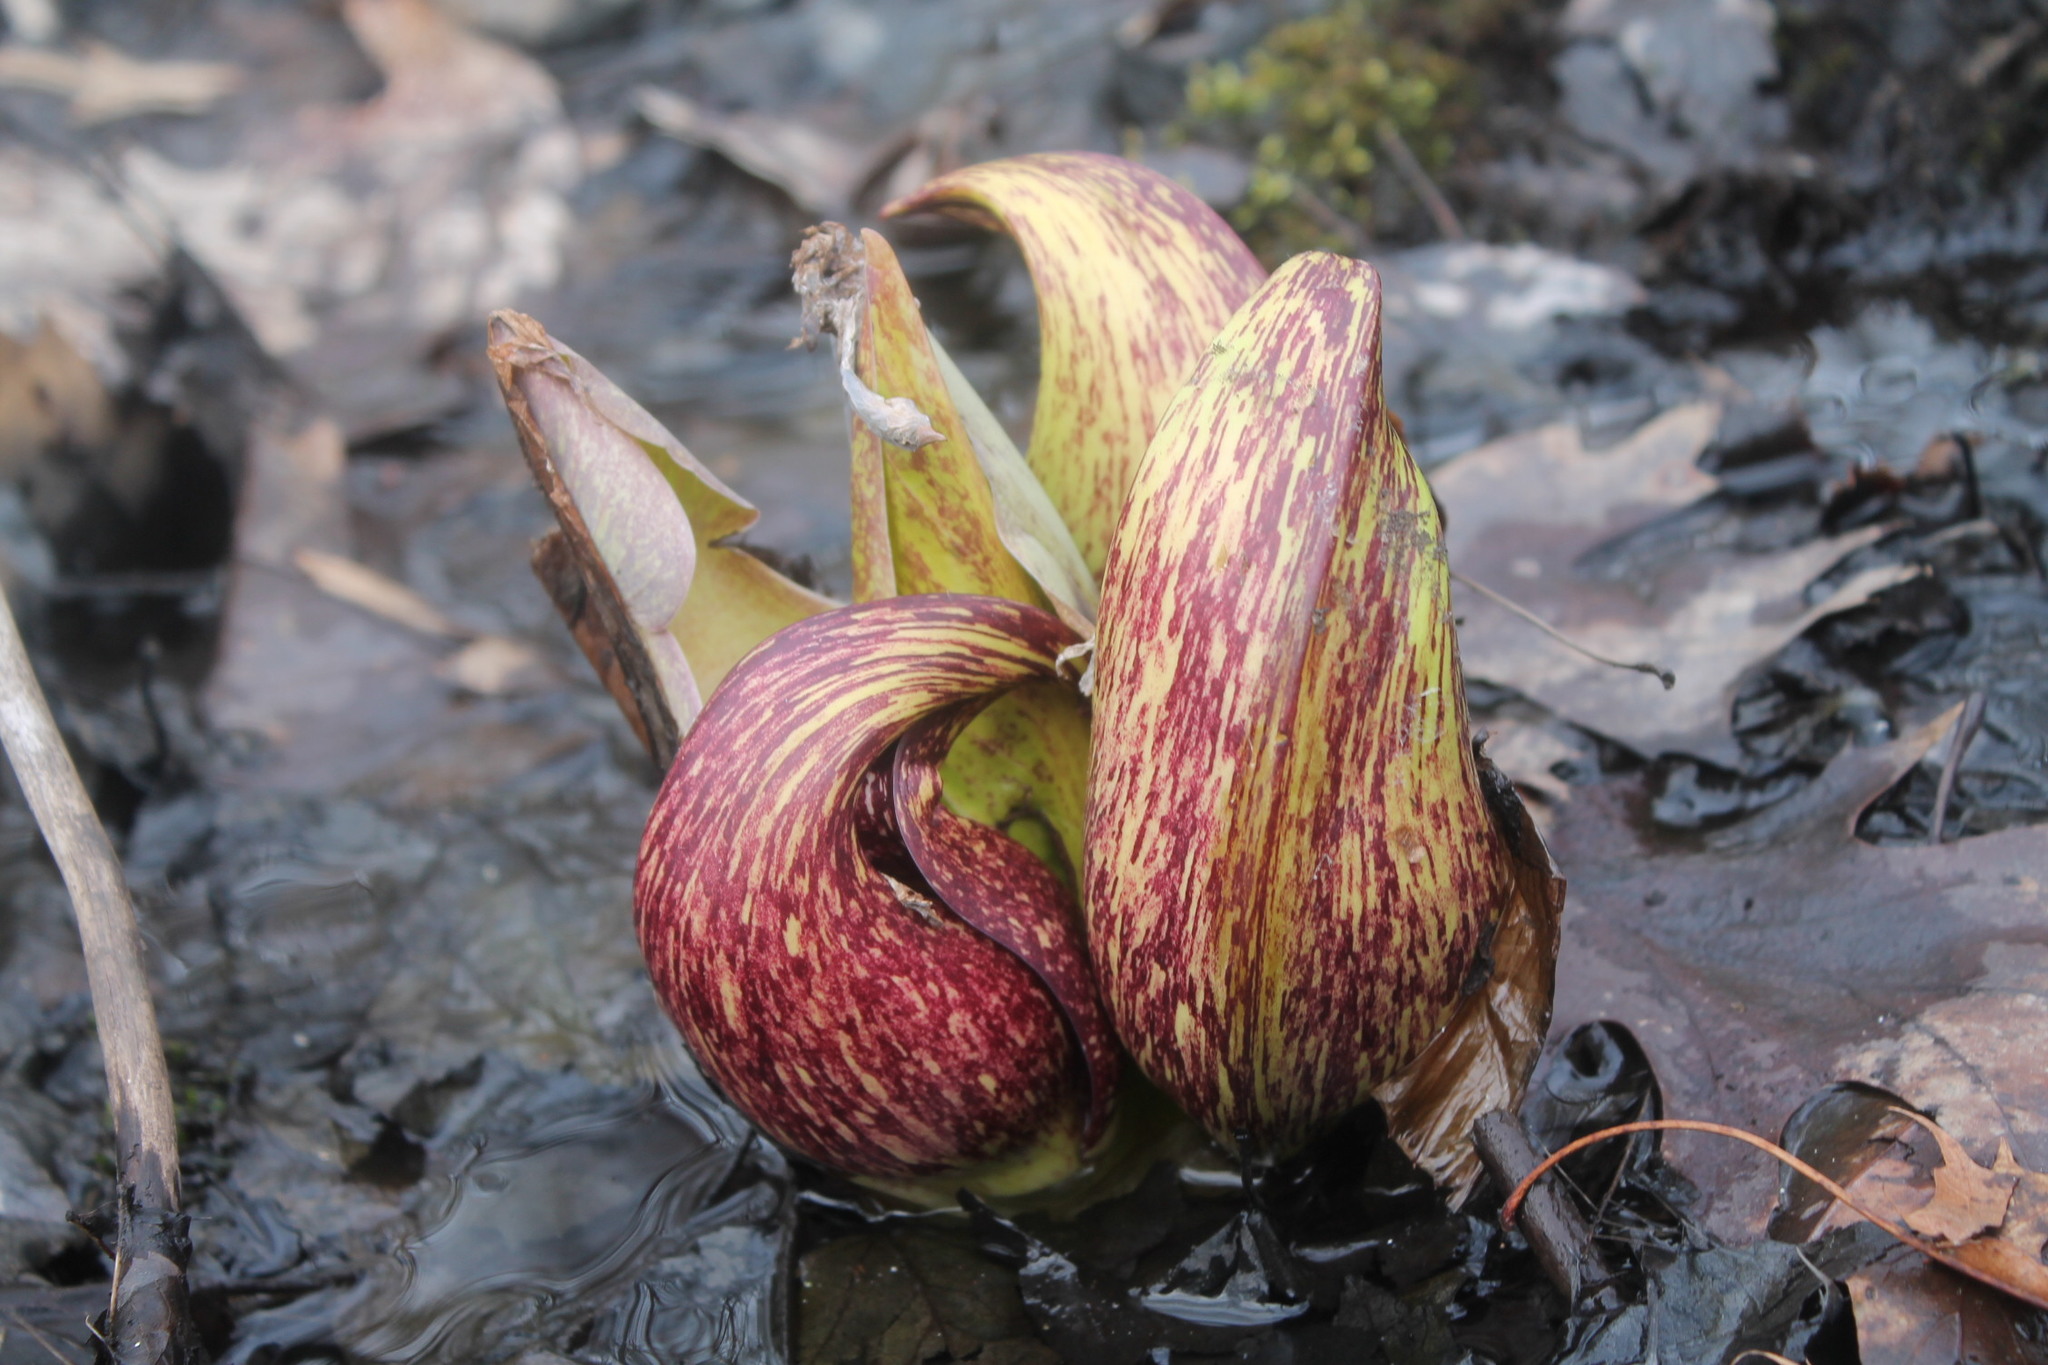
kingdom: Plantae
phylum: Tracheophyta
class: Liliopsida
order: Alismatales
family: Araceae
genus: Symplocarpus
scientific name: Symplocarpus foetidus
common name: Eastern skunk cabbage
